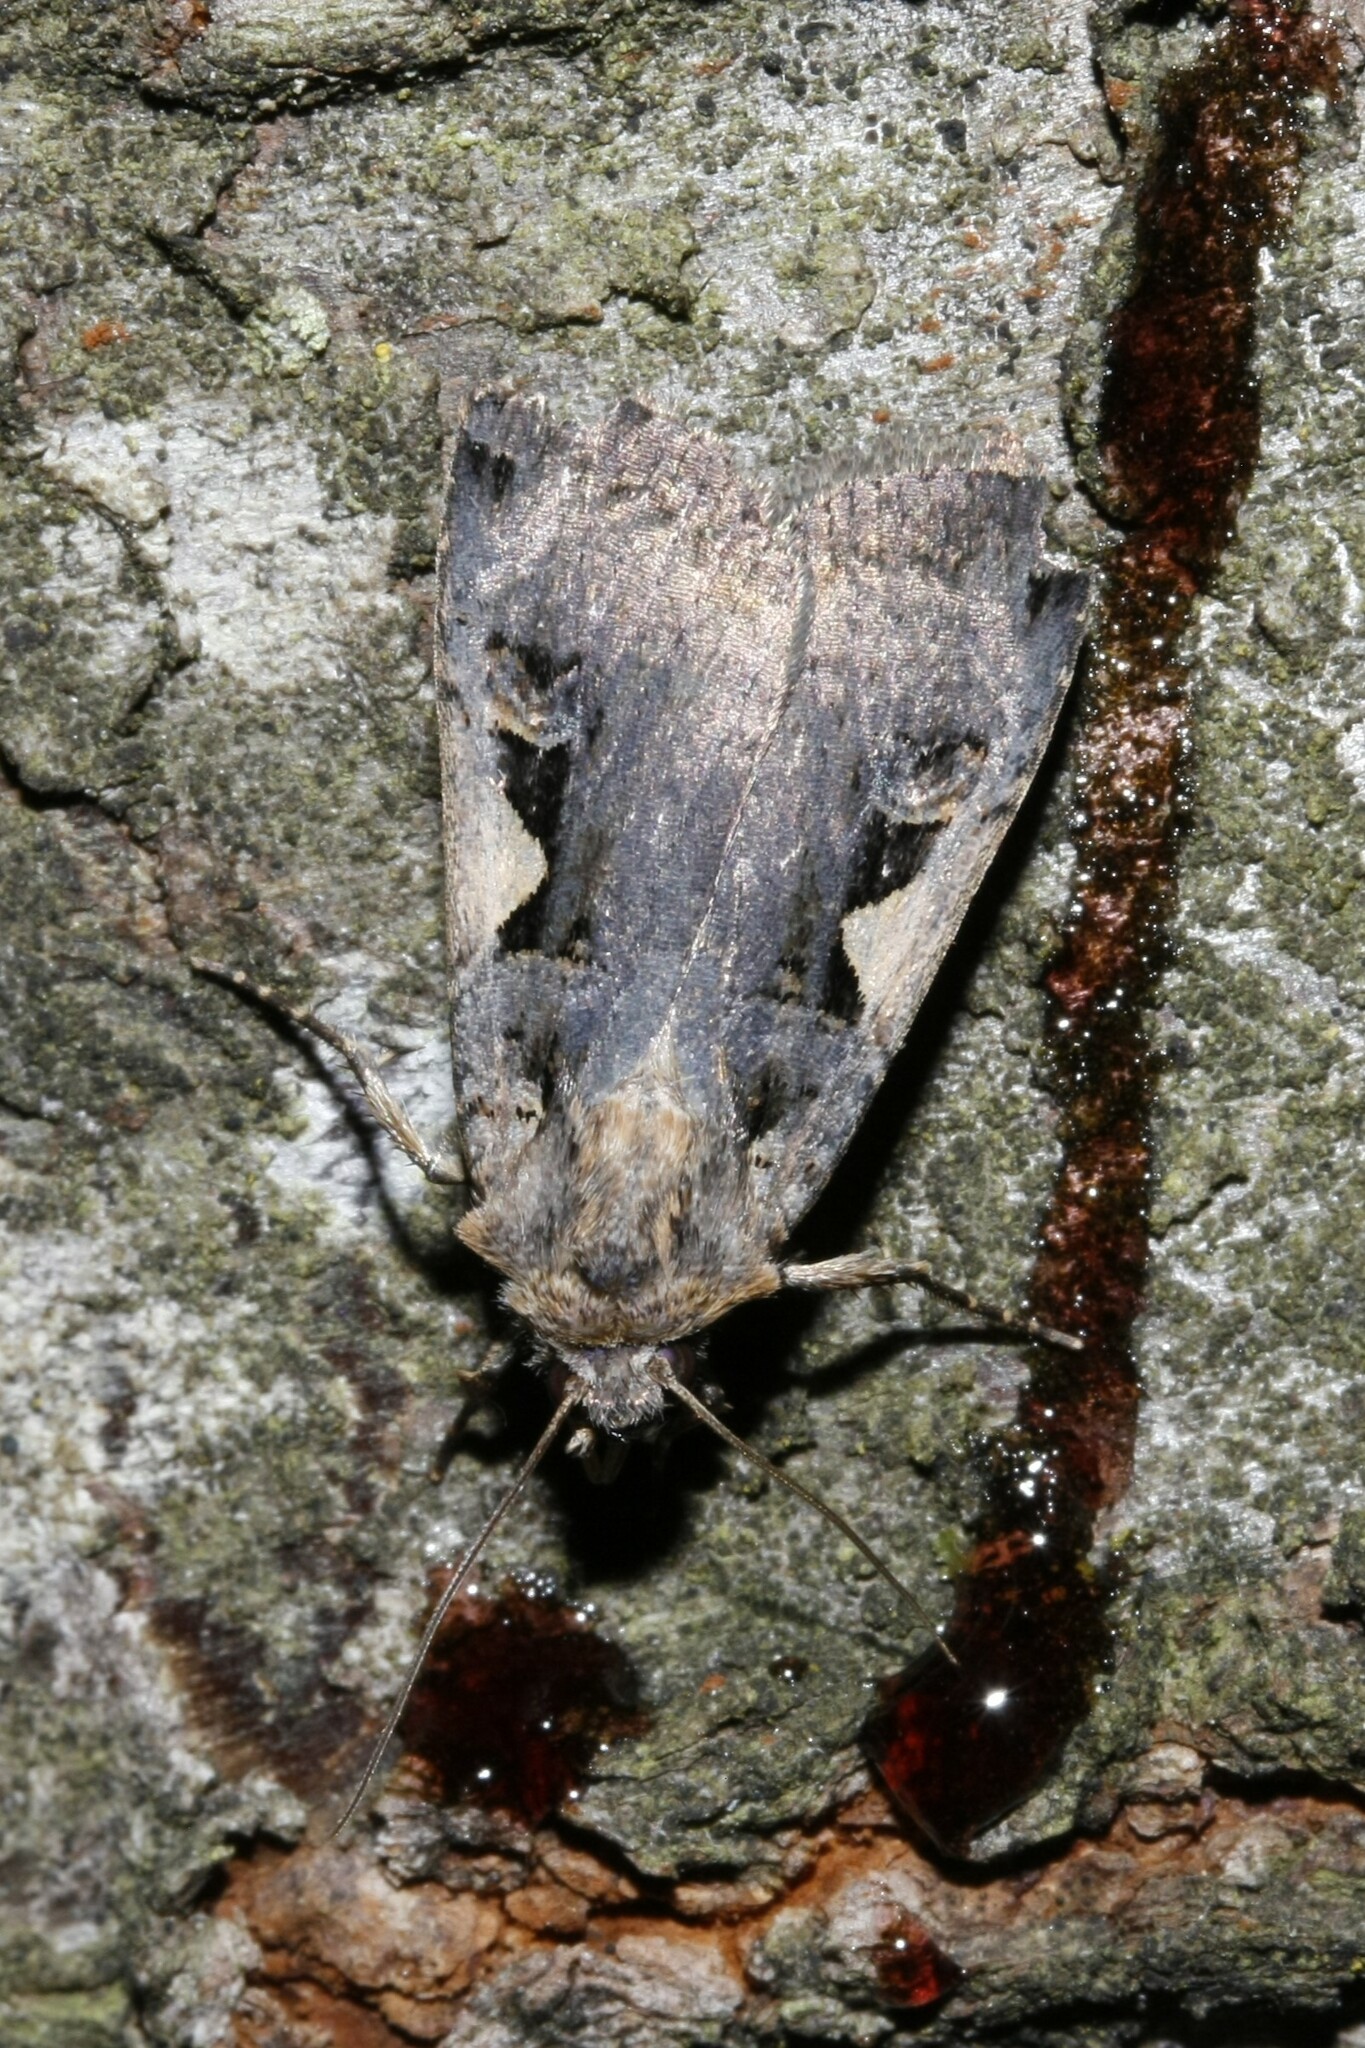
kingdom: Animalia
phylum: Arthropoda
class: Insecta
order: Lepidoptera
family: Noctuidae
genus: Xestia
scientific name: Xestia c-nigrum
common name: Setaceous hebrew character
